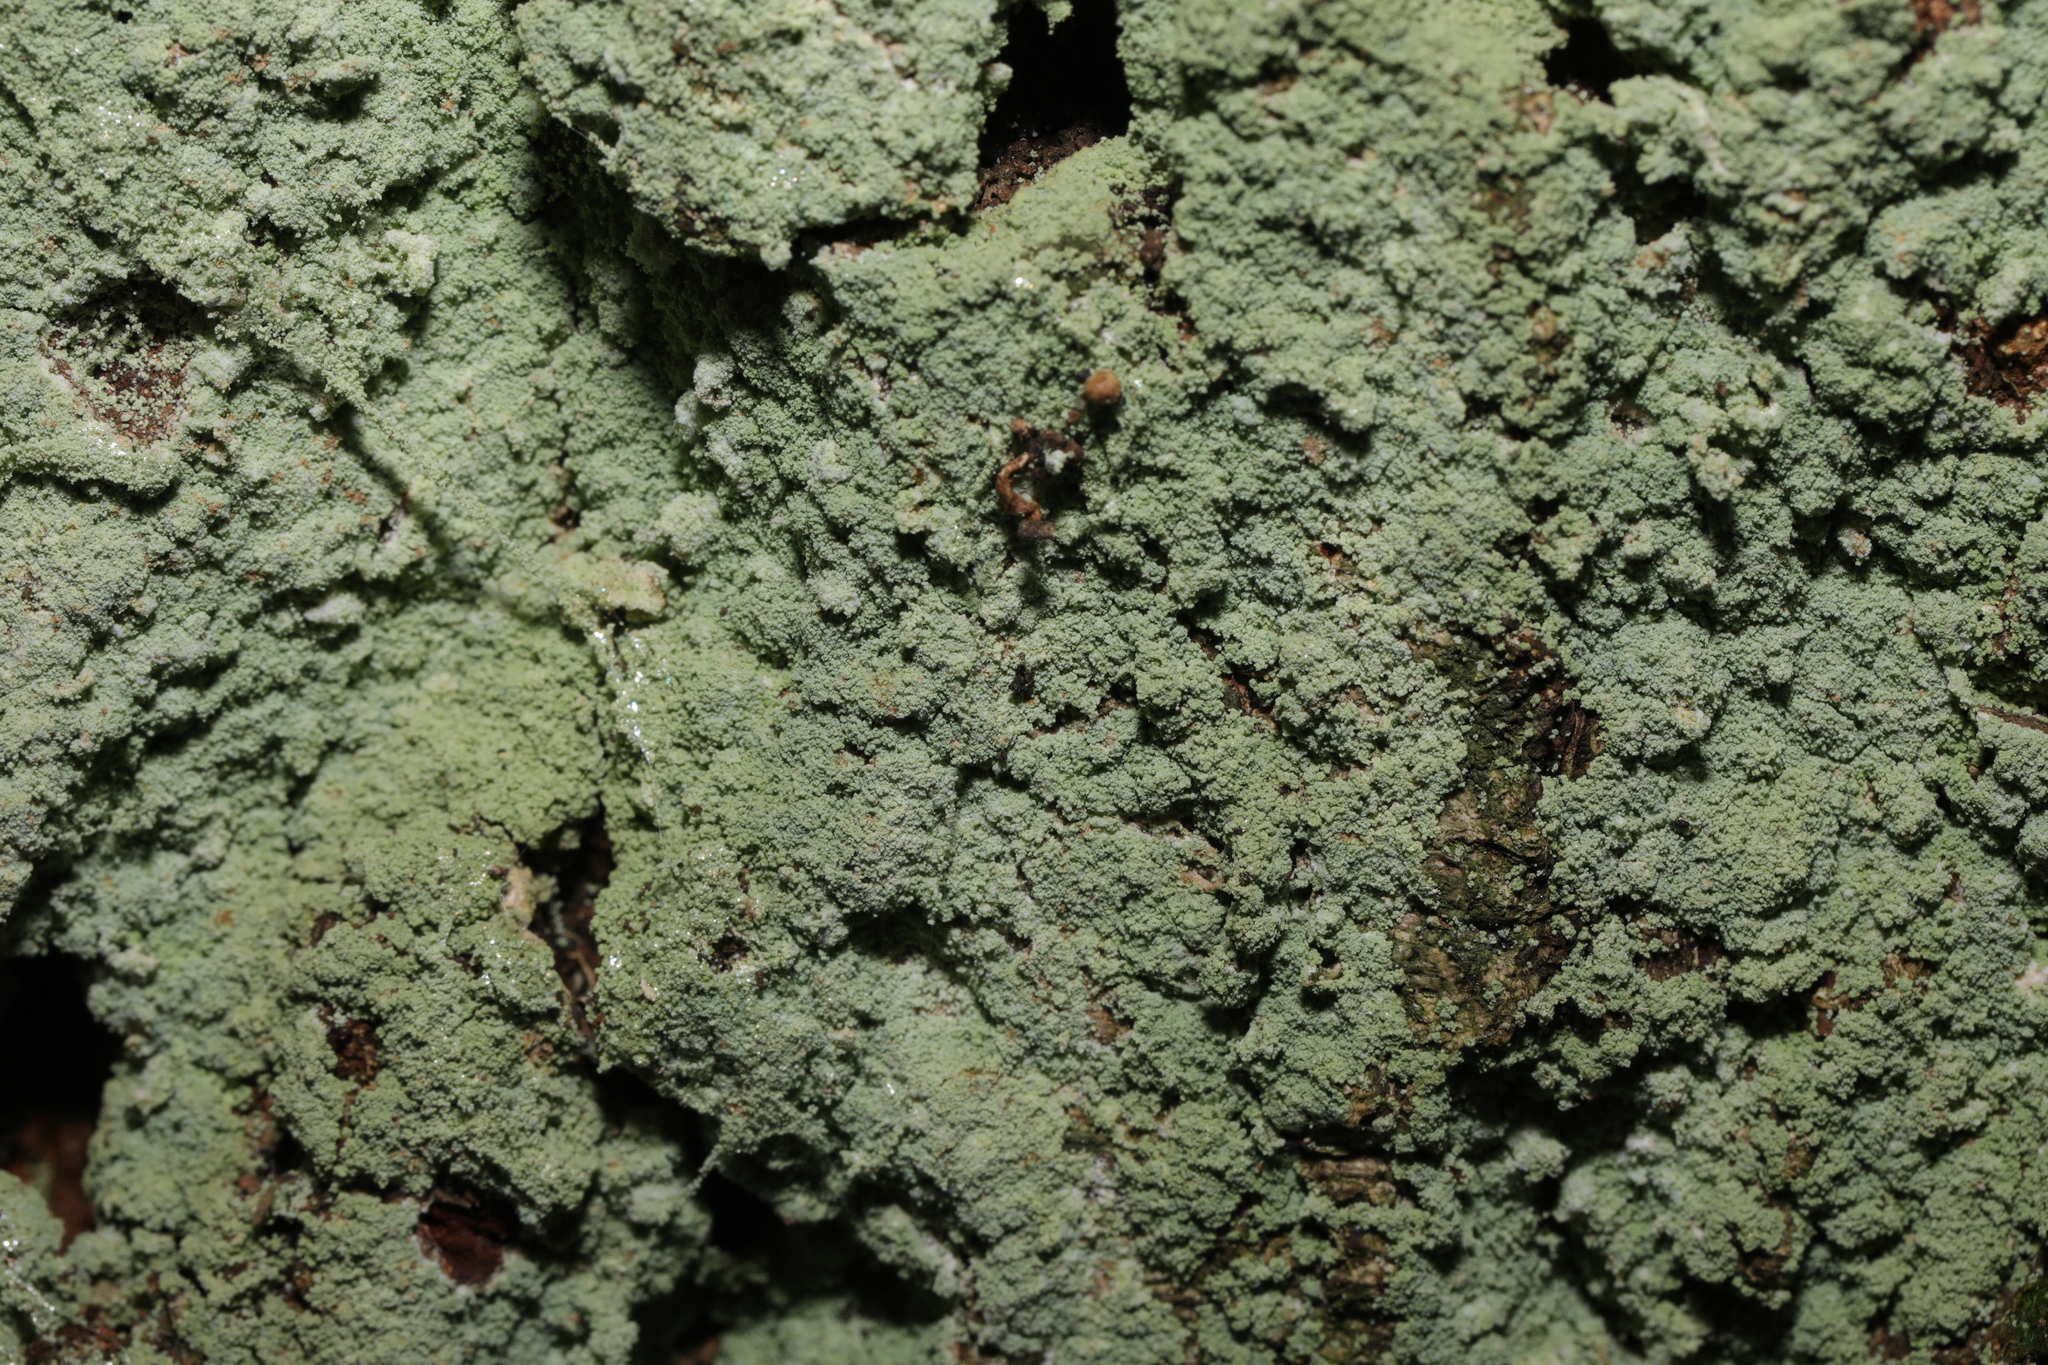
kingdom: Fungi
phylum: Ascomycota
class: Lecanoromycetes
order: Lecanorales
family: Stereocaulaceae
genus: Lepraria
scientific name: Lepraria
